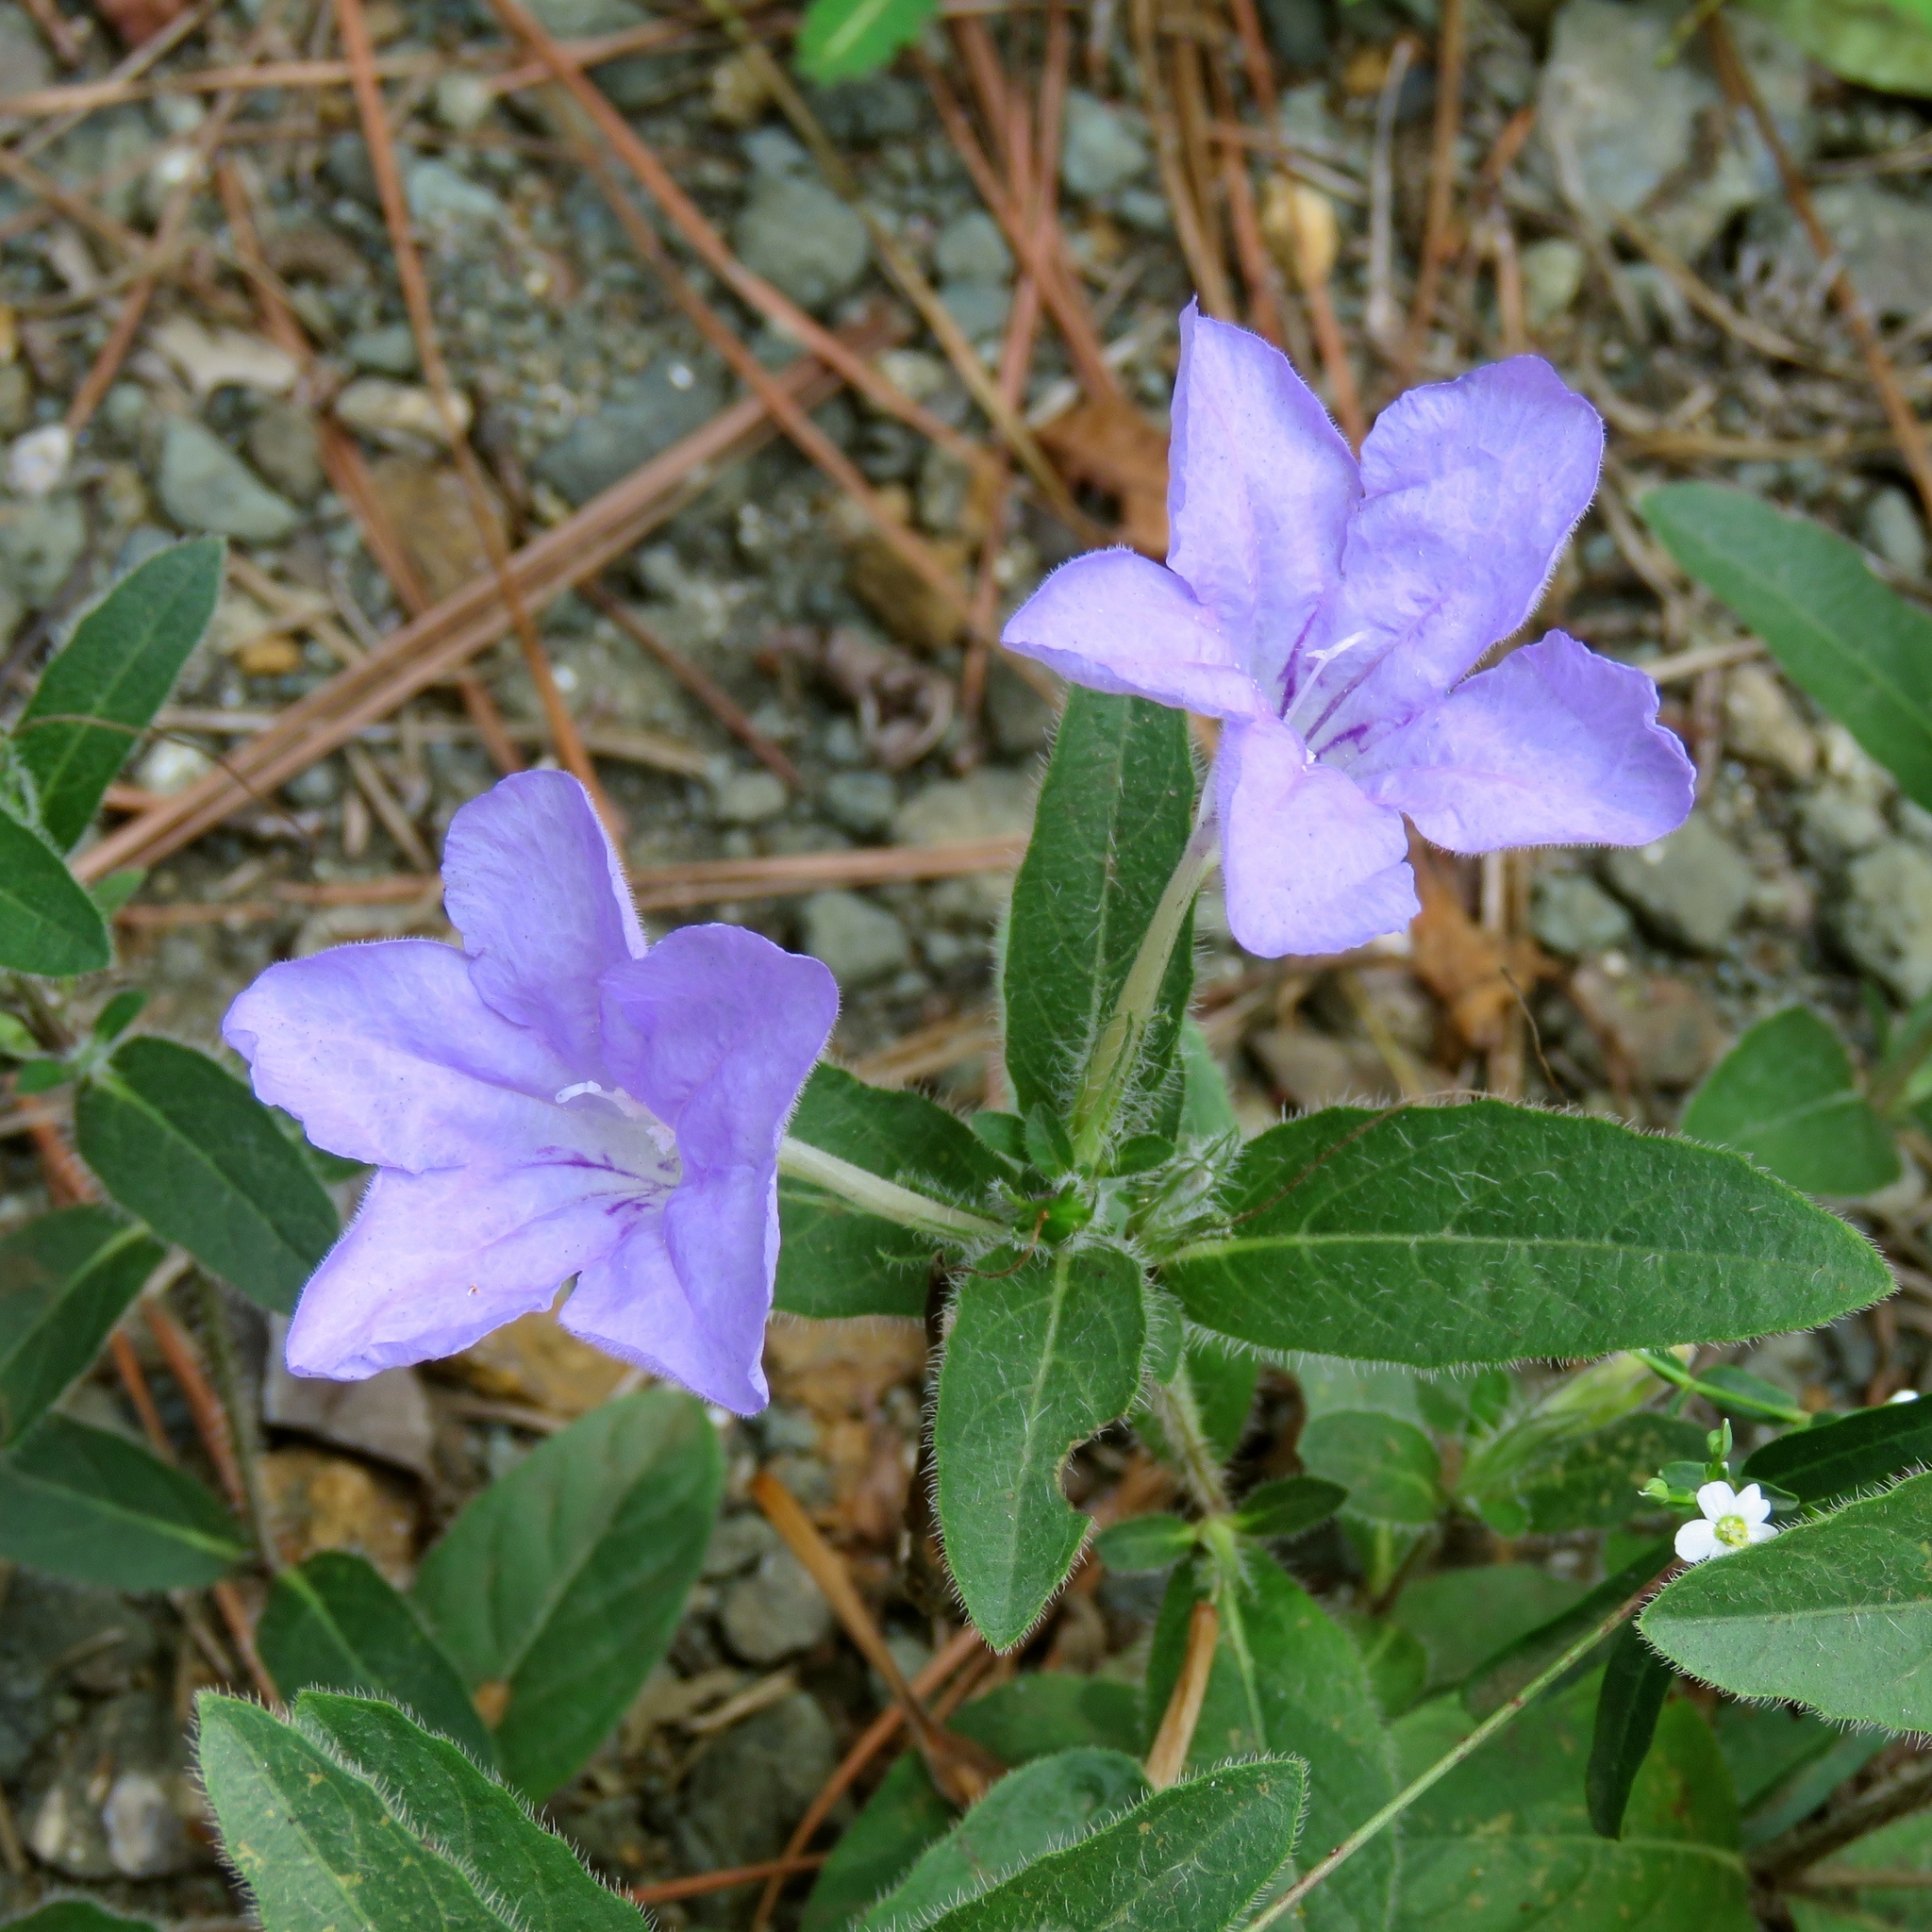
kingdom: Plantae
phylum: Tracheophyta
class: Magnoliopsida
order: Lamiales
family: Acanthaceae
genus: Ruellia
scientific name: Ruellia humilis
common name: Fringe-leaf ruellia
